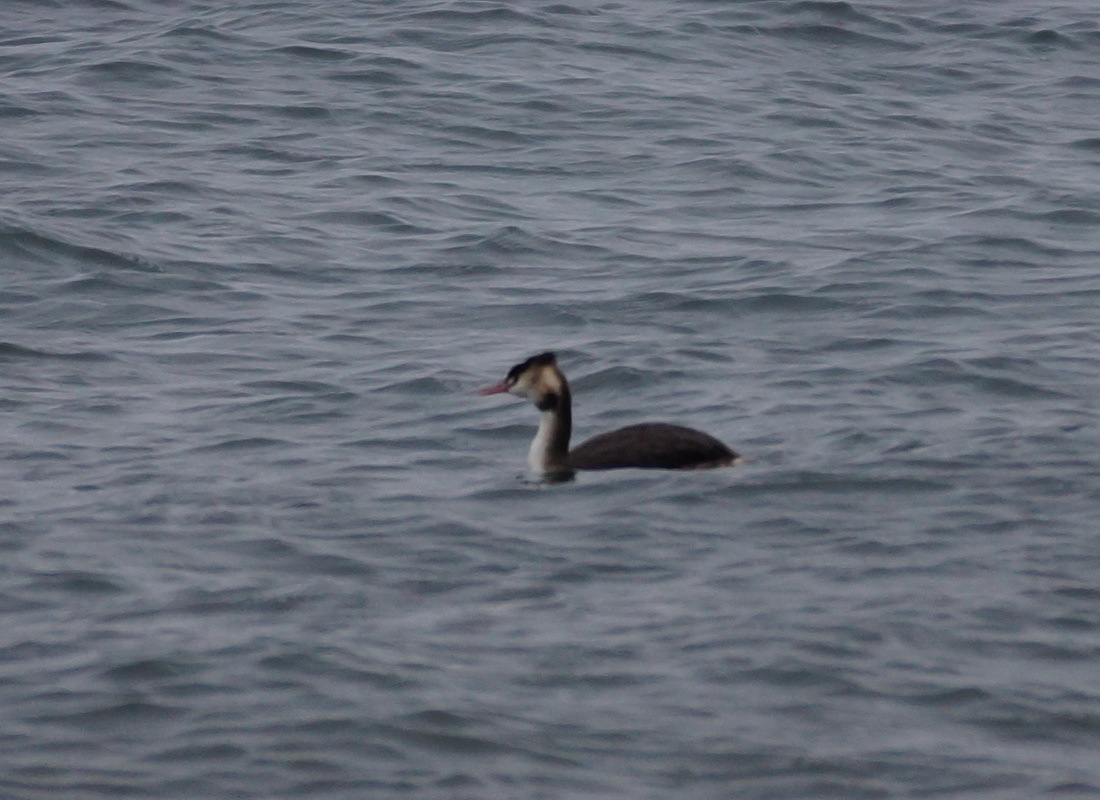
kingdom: Animalia
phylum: Chordata
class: Aves
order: Podicipediformes
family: Podicipedidae
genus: Podiceps
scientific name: Podiceps cristatus
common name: Great crested grebe
